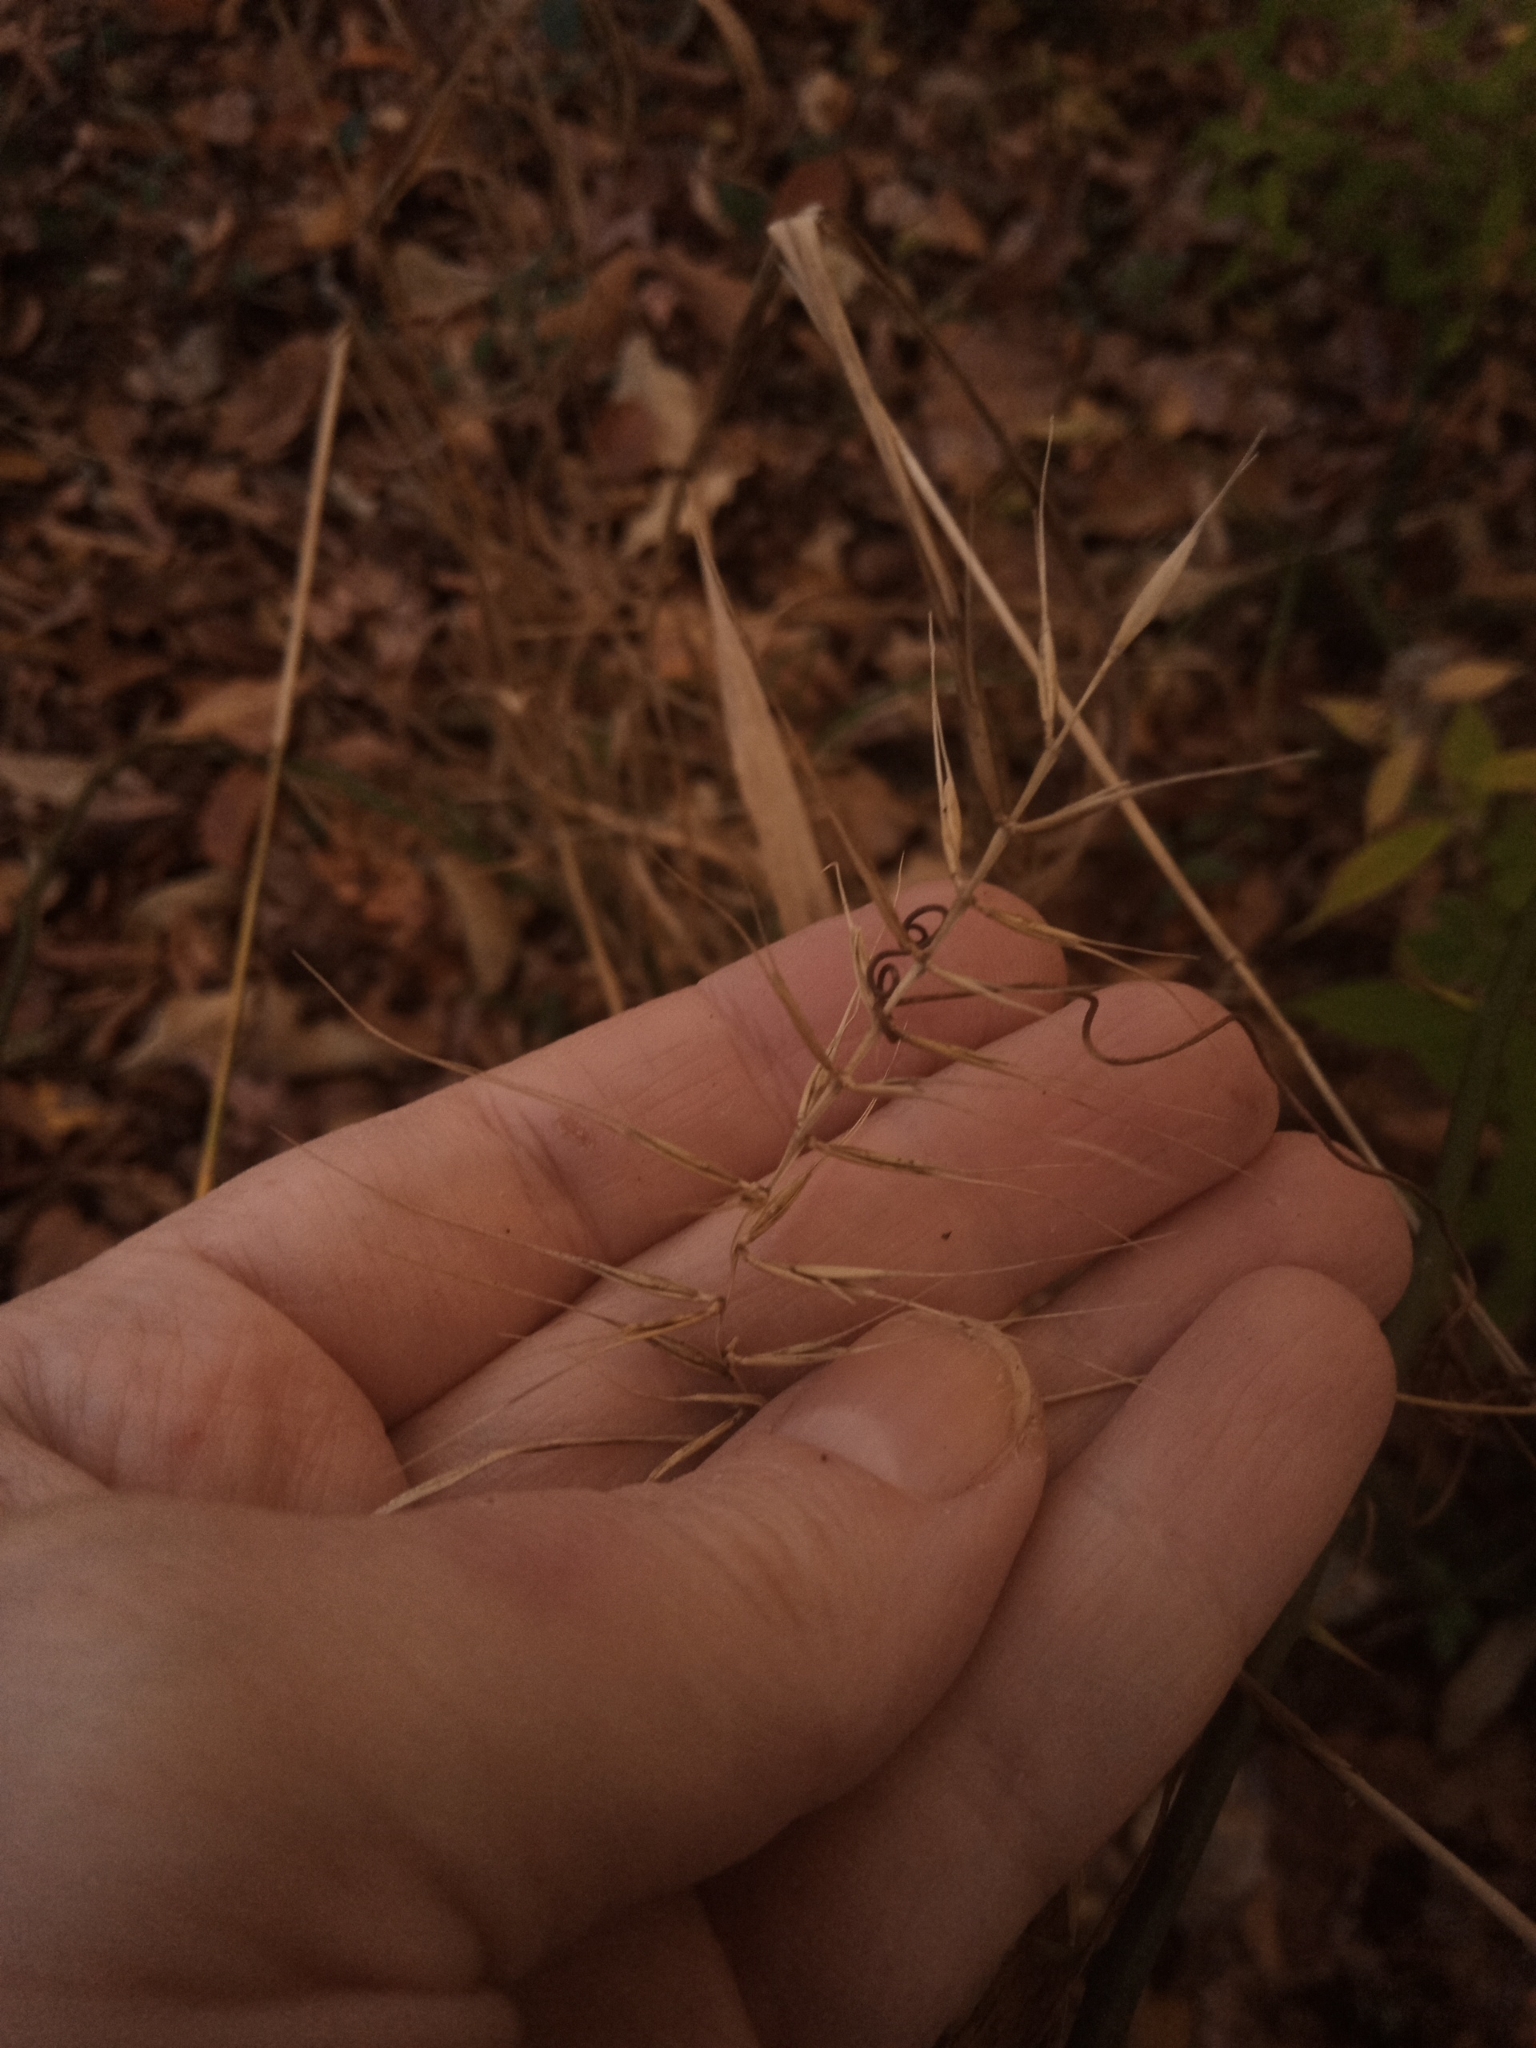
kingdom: Plantae
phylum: Tracheophyta
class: Liliopsida
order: Poales
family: Poaceae
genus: Elymus
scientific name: Elymus hystrix
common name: Bottlebrush grass
